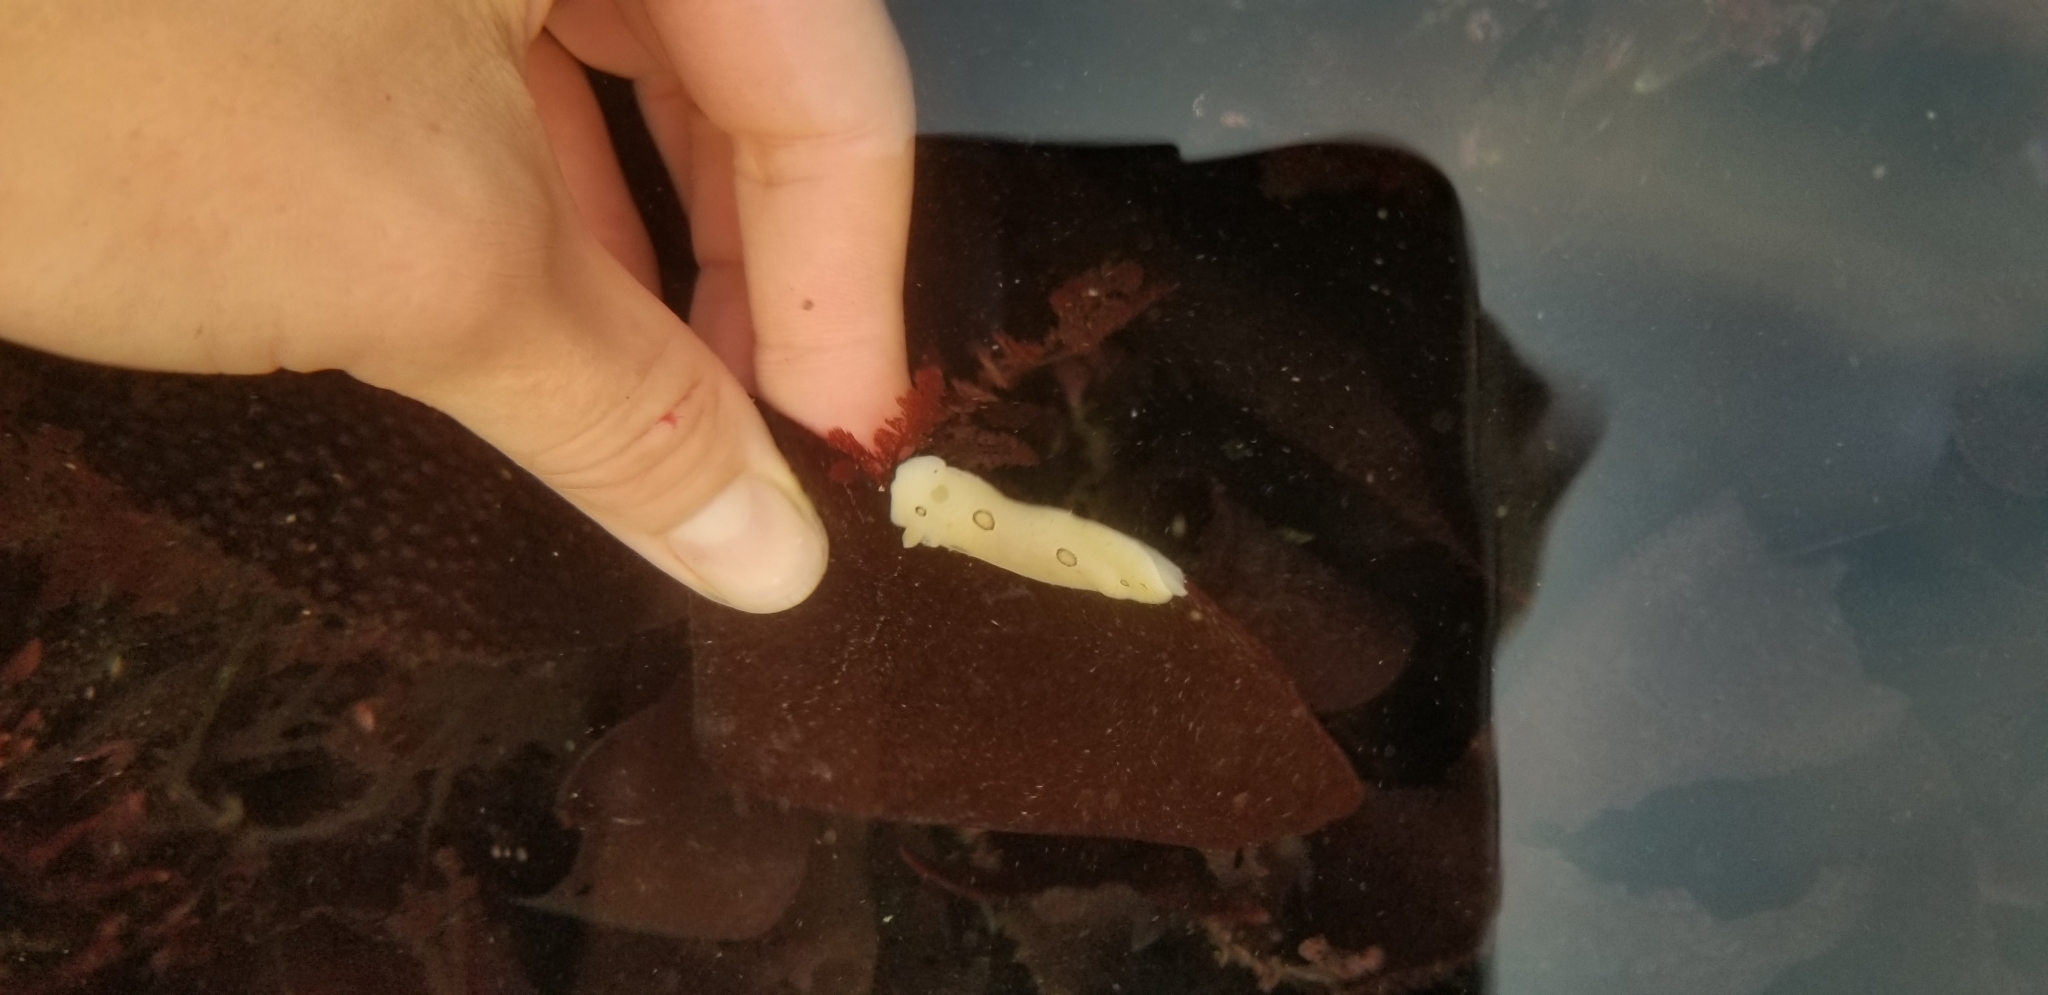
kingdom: Animalia
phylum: Mollusca
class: Gastropoda
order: Nudibranchia
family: Discodorididae
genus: Diaulula
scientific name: Diaulula sandiegensis
